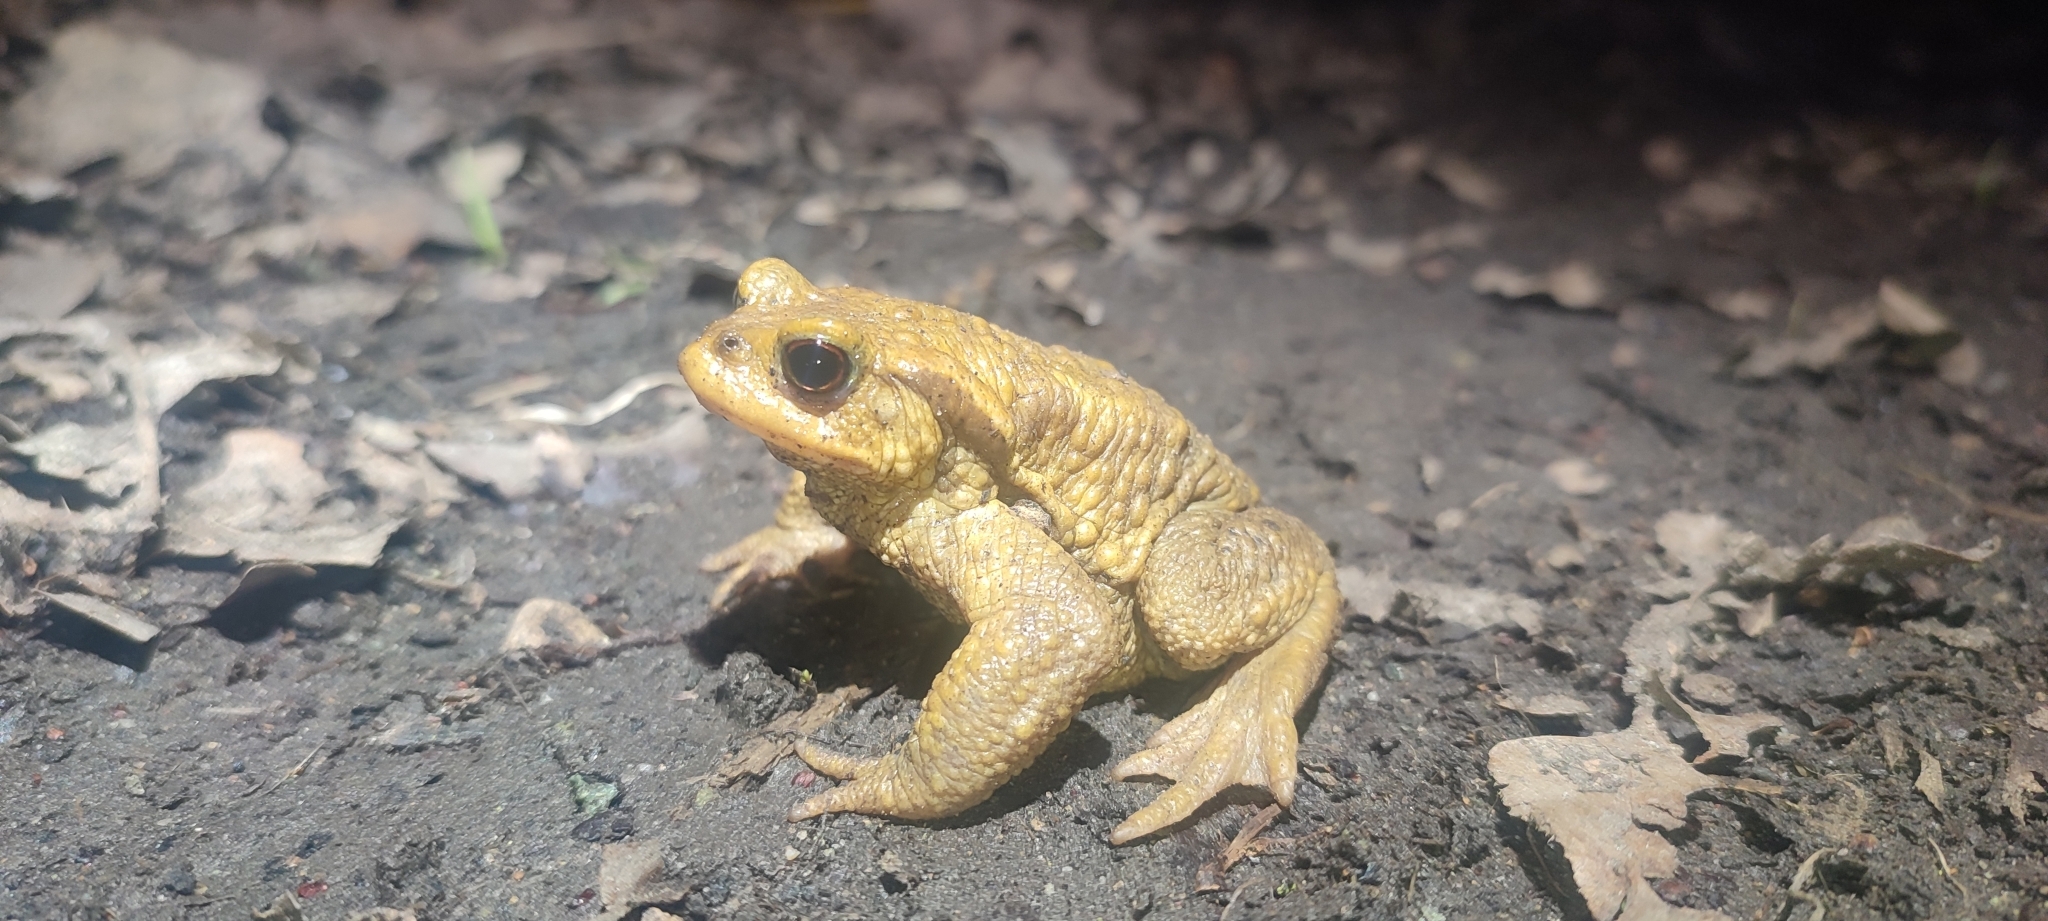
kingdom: Animalia
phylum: Chordata
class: Amphibia
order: Anura
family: Bufonidae
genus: Bufo
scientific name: Bufo spinosus
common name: Western common toad
